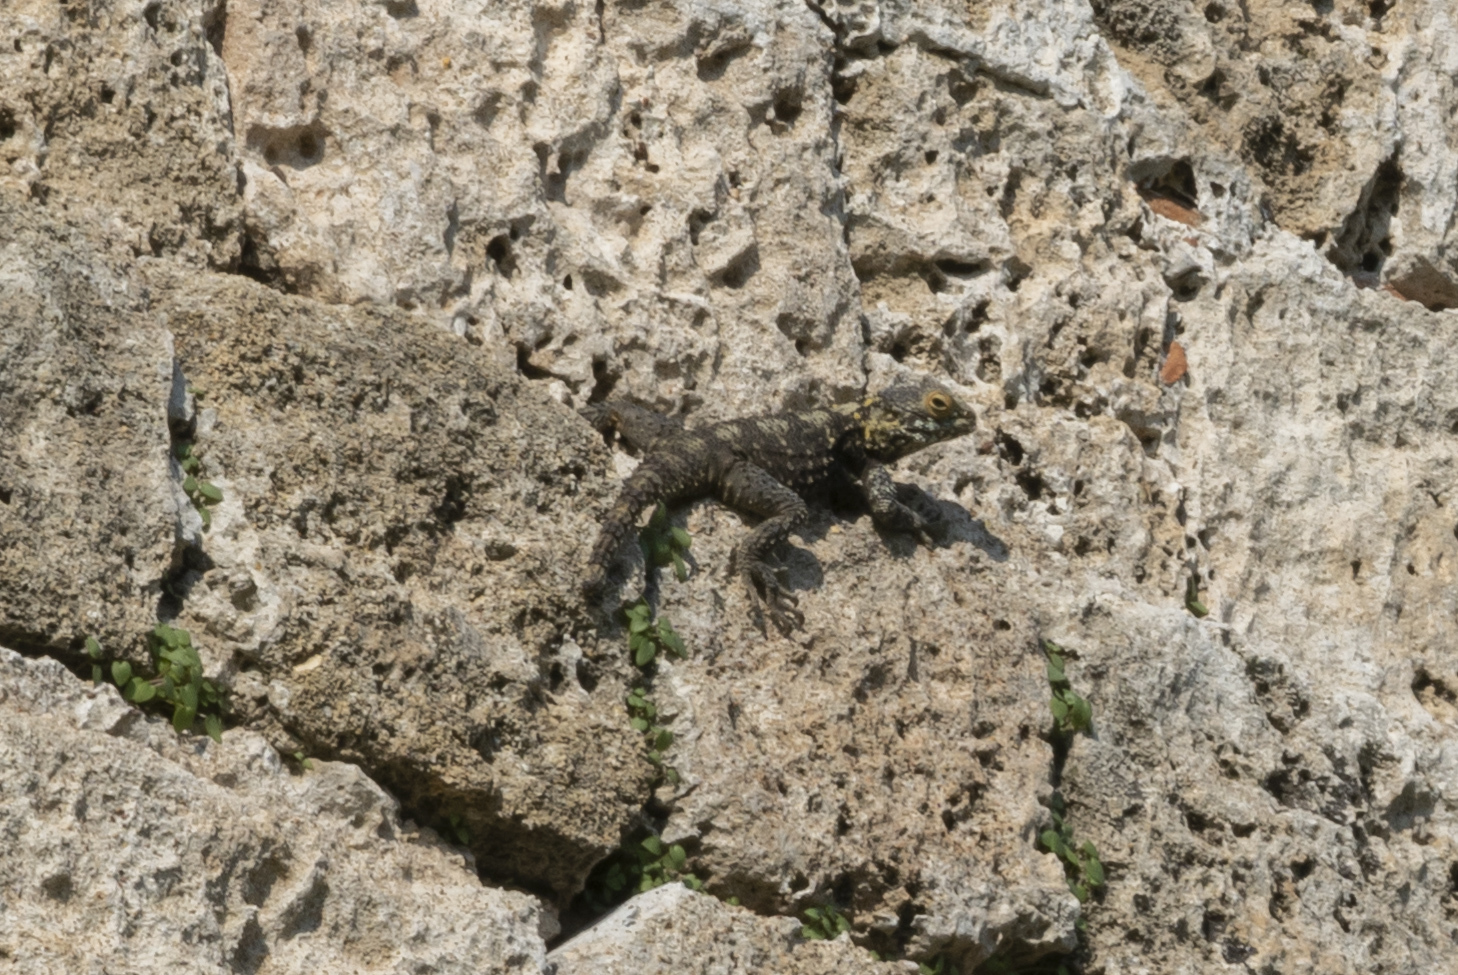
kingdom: Animalia
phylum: Chordata
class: Squamata
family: Agamidae
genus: Stellagama
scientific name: Stellagama stellio
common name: Starred agama
